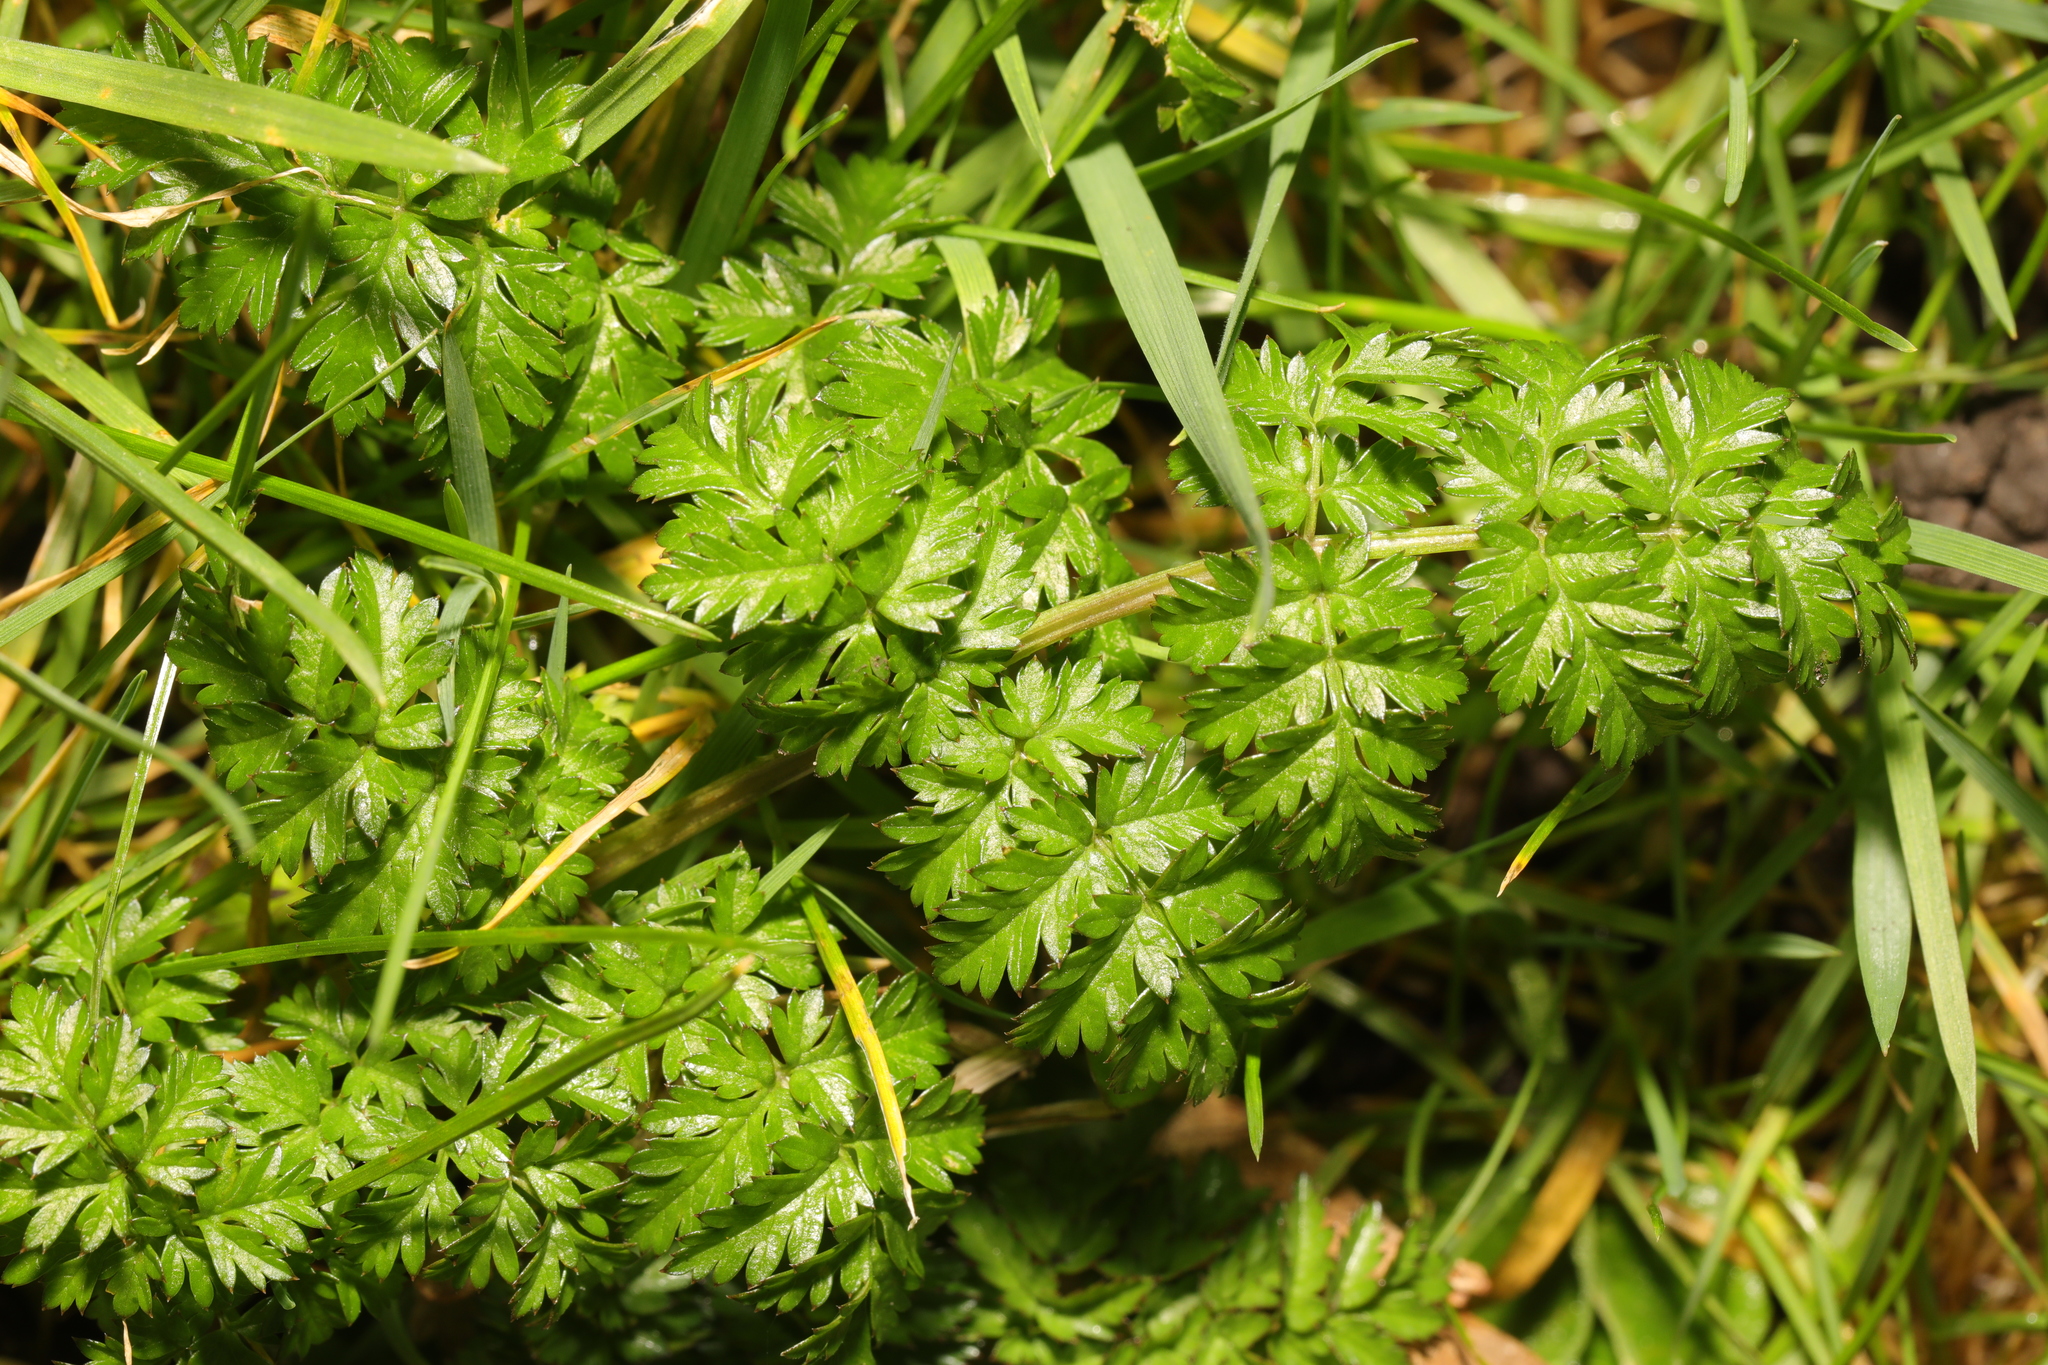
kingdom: Plantae
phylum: Tracheophyta
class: Magnoliopsida
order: Apiales
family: Apiaceae
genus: Anthriscus
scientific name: Anthriscus sylvestris
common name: Cow parsley
